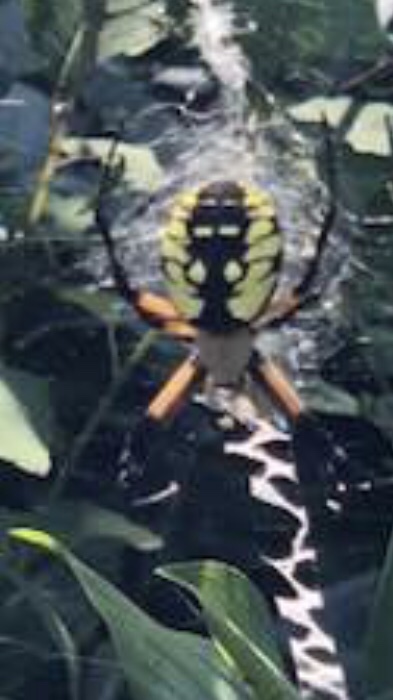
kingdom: Animalia
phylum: Arthropoda
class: Arachnida
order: Araneae
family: Araneidae
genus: Argiope
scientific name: Argiope aurantia
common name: Orb weavers
